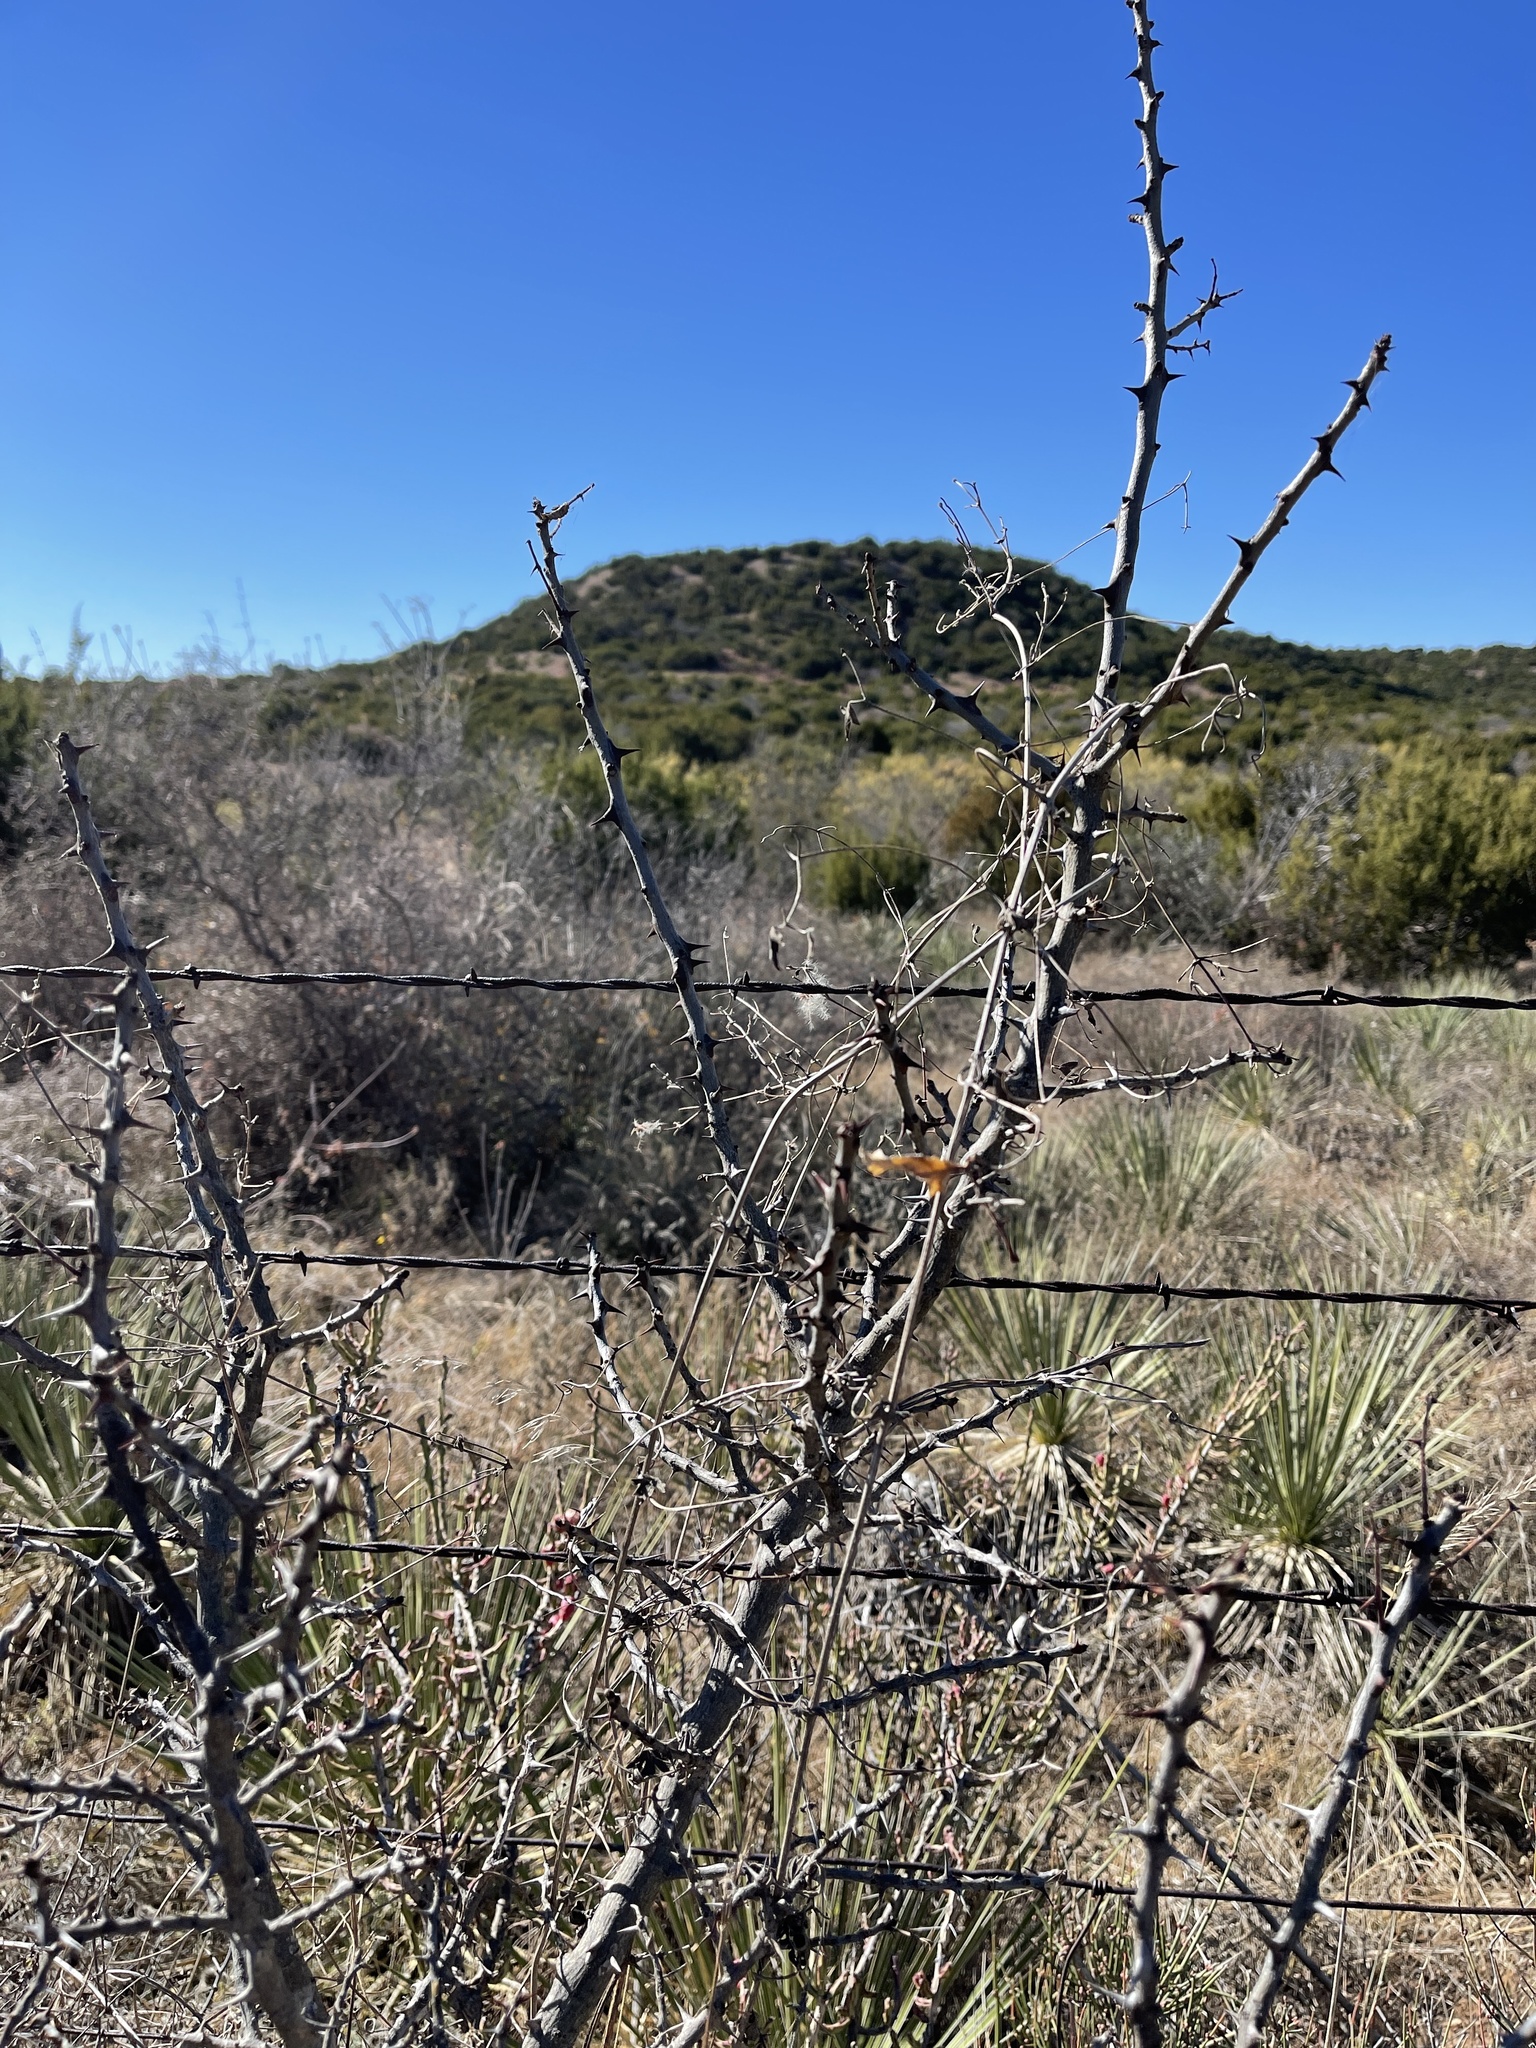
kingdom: Plantae
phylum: Tracheophyta
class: Magnoliopsida
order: Fabales
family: Fabaceae
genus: Mimosa
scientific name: Mimosa borealis
